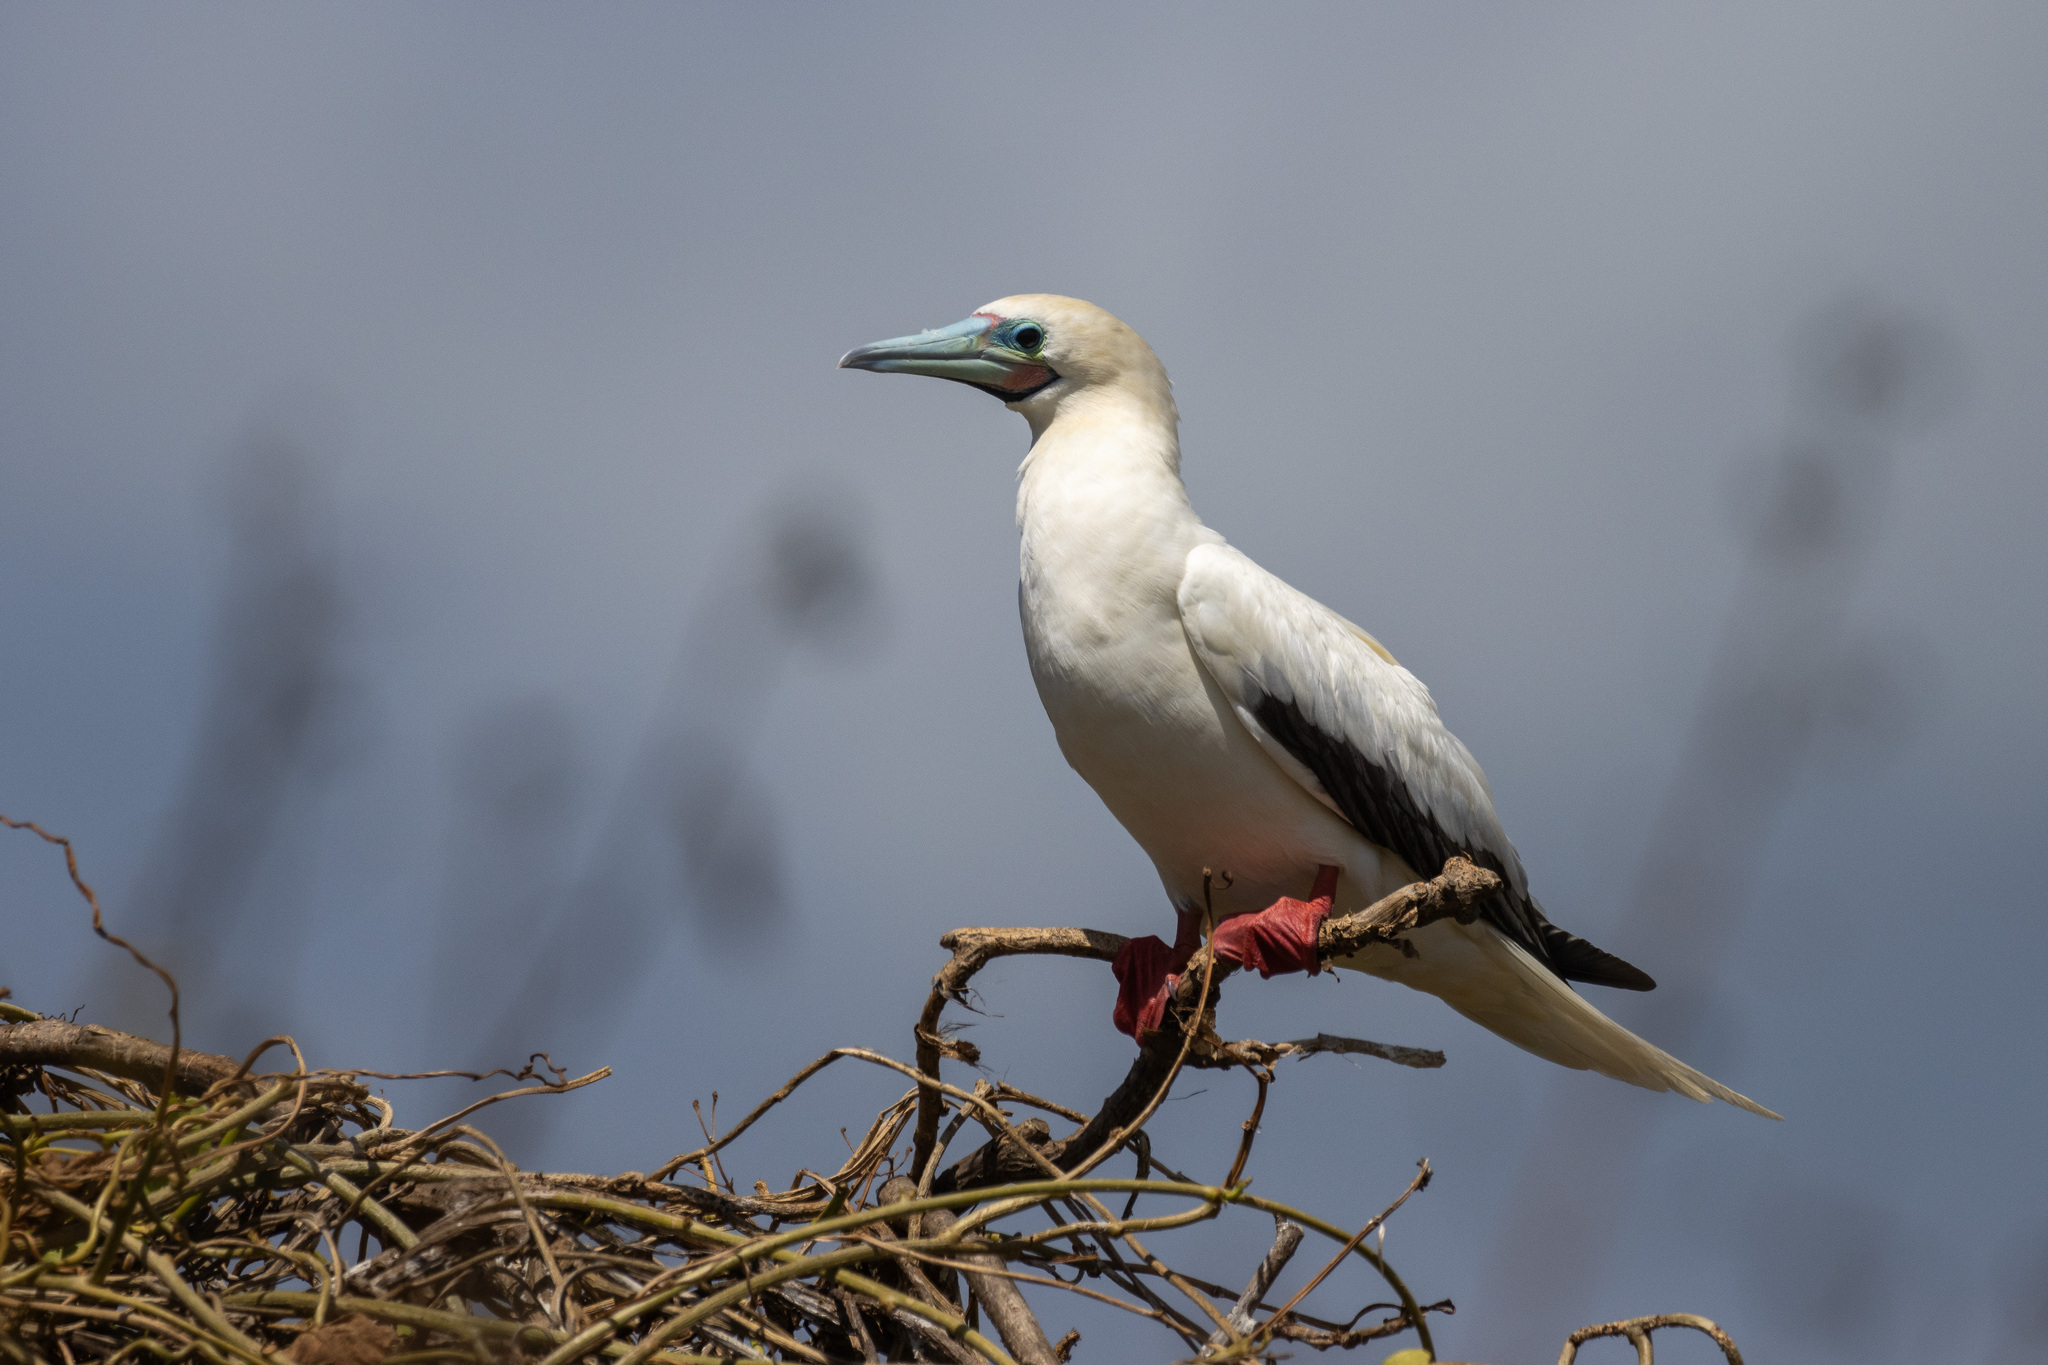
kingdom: Animalia
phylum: Chordata
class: Aves
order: Suliformes
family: Sulidae
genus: Sula
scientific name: Sula sula
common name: Red-footed booby
